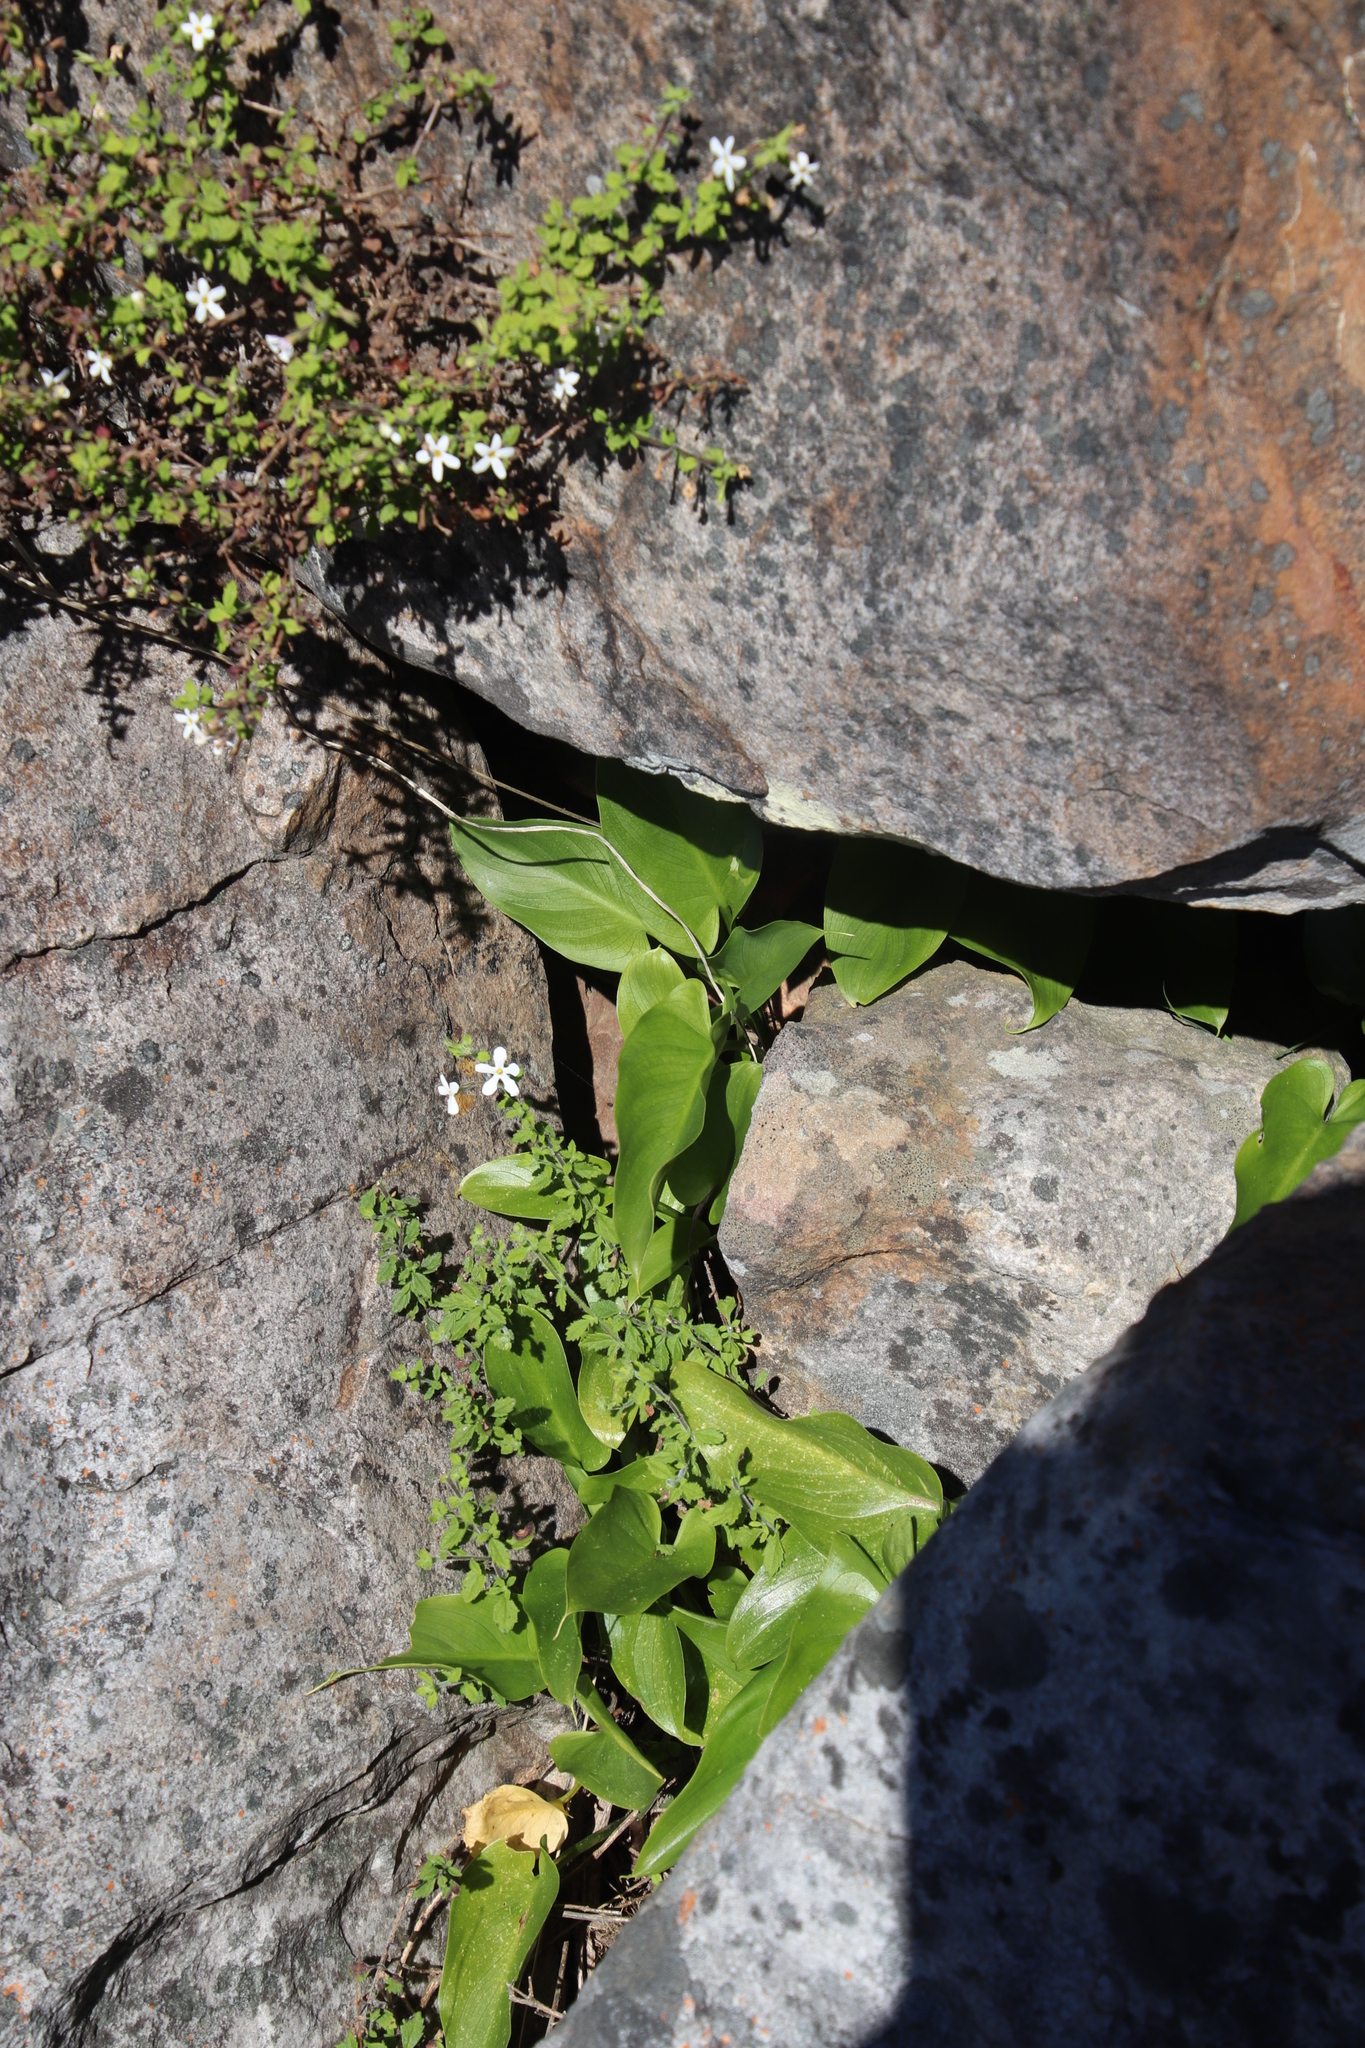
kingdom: Plantae
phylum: Tracheophyta
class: Liliopsida
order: Alismatales
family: Araceae
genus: Zantedeschia
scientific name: Zantedeschia aethiopica
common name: Altar-lily
